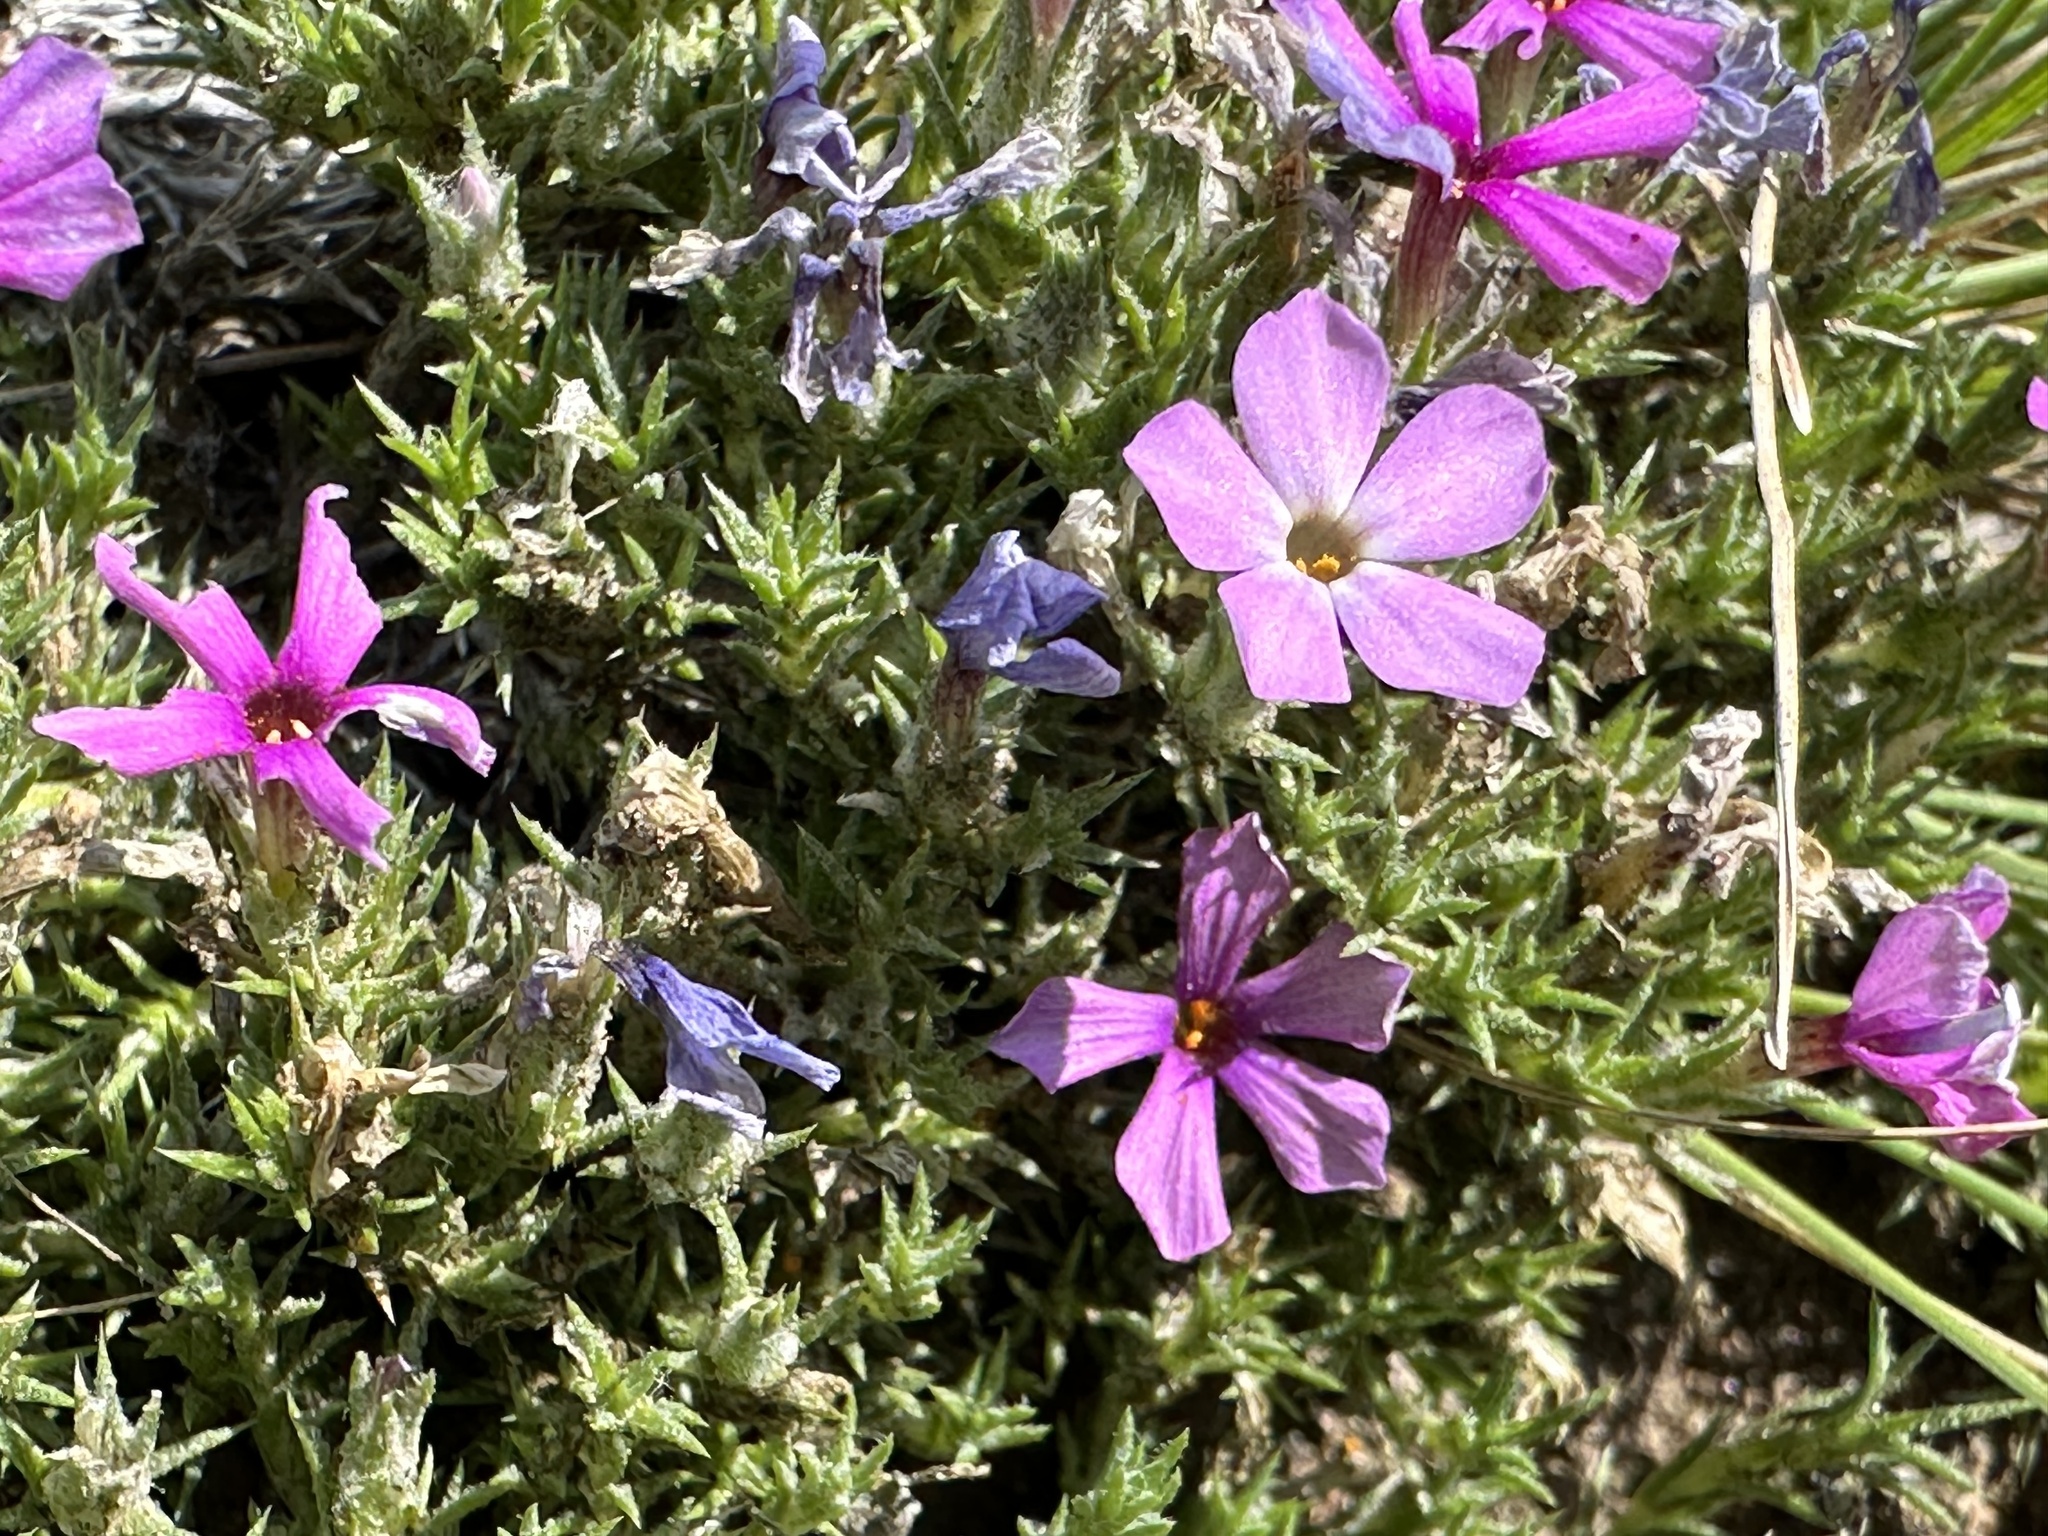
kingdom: Plantae
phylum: Tracheophyta
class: Magnoliopsida
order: Ericales
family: Polemoniaceae
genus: Phlox
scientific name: Phlox hoodii
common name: Moss phlox
